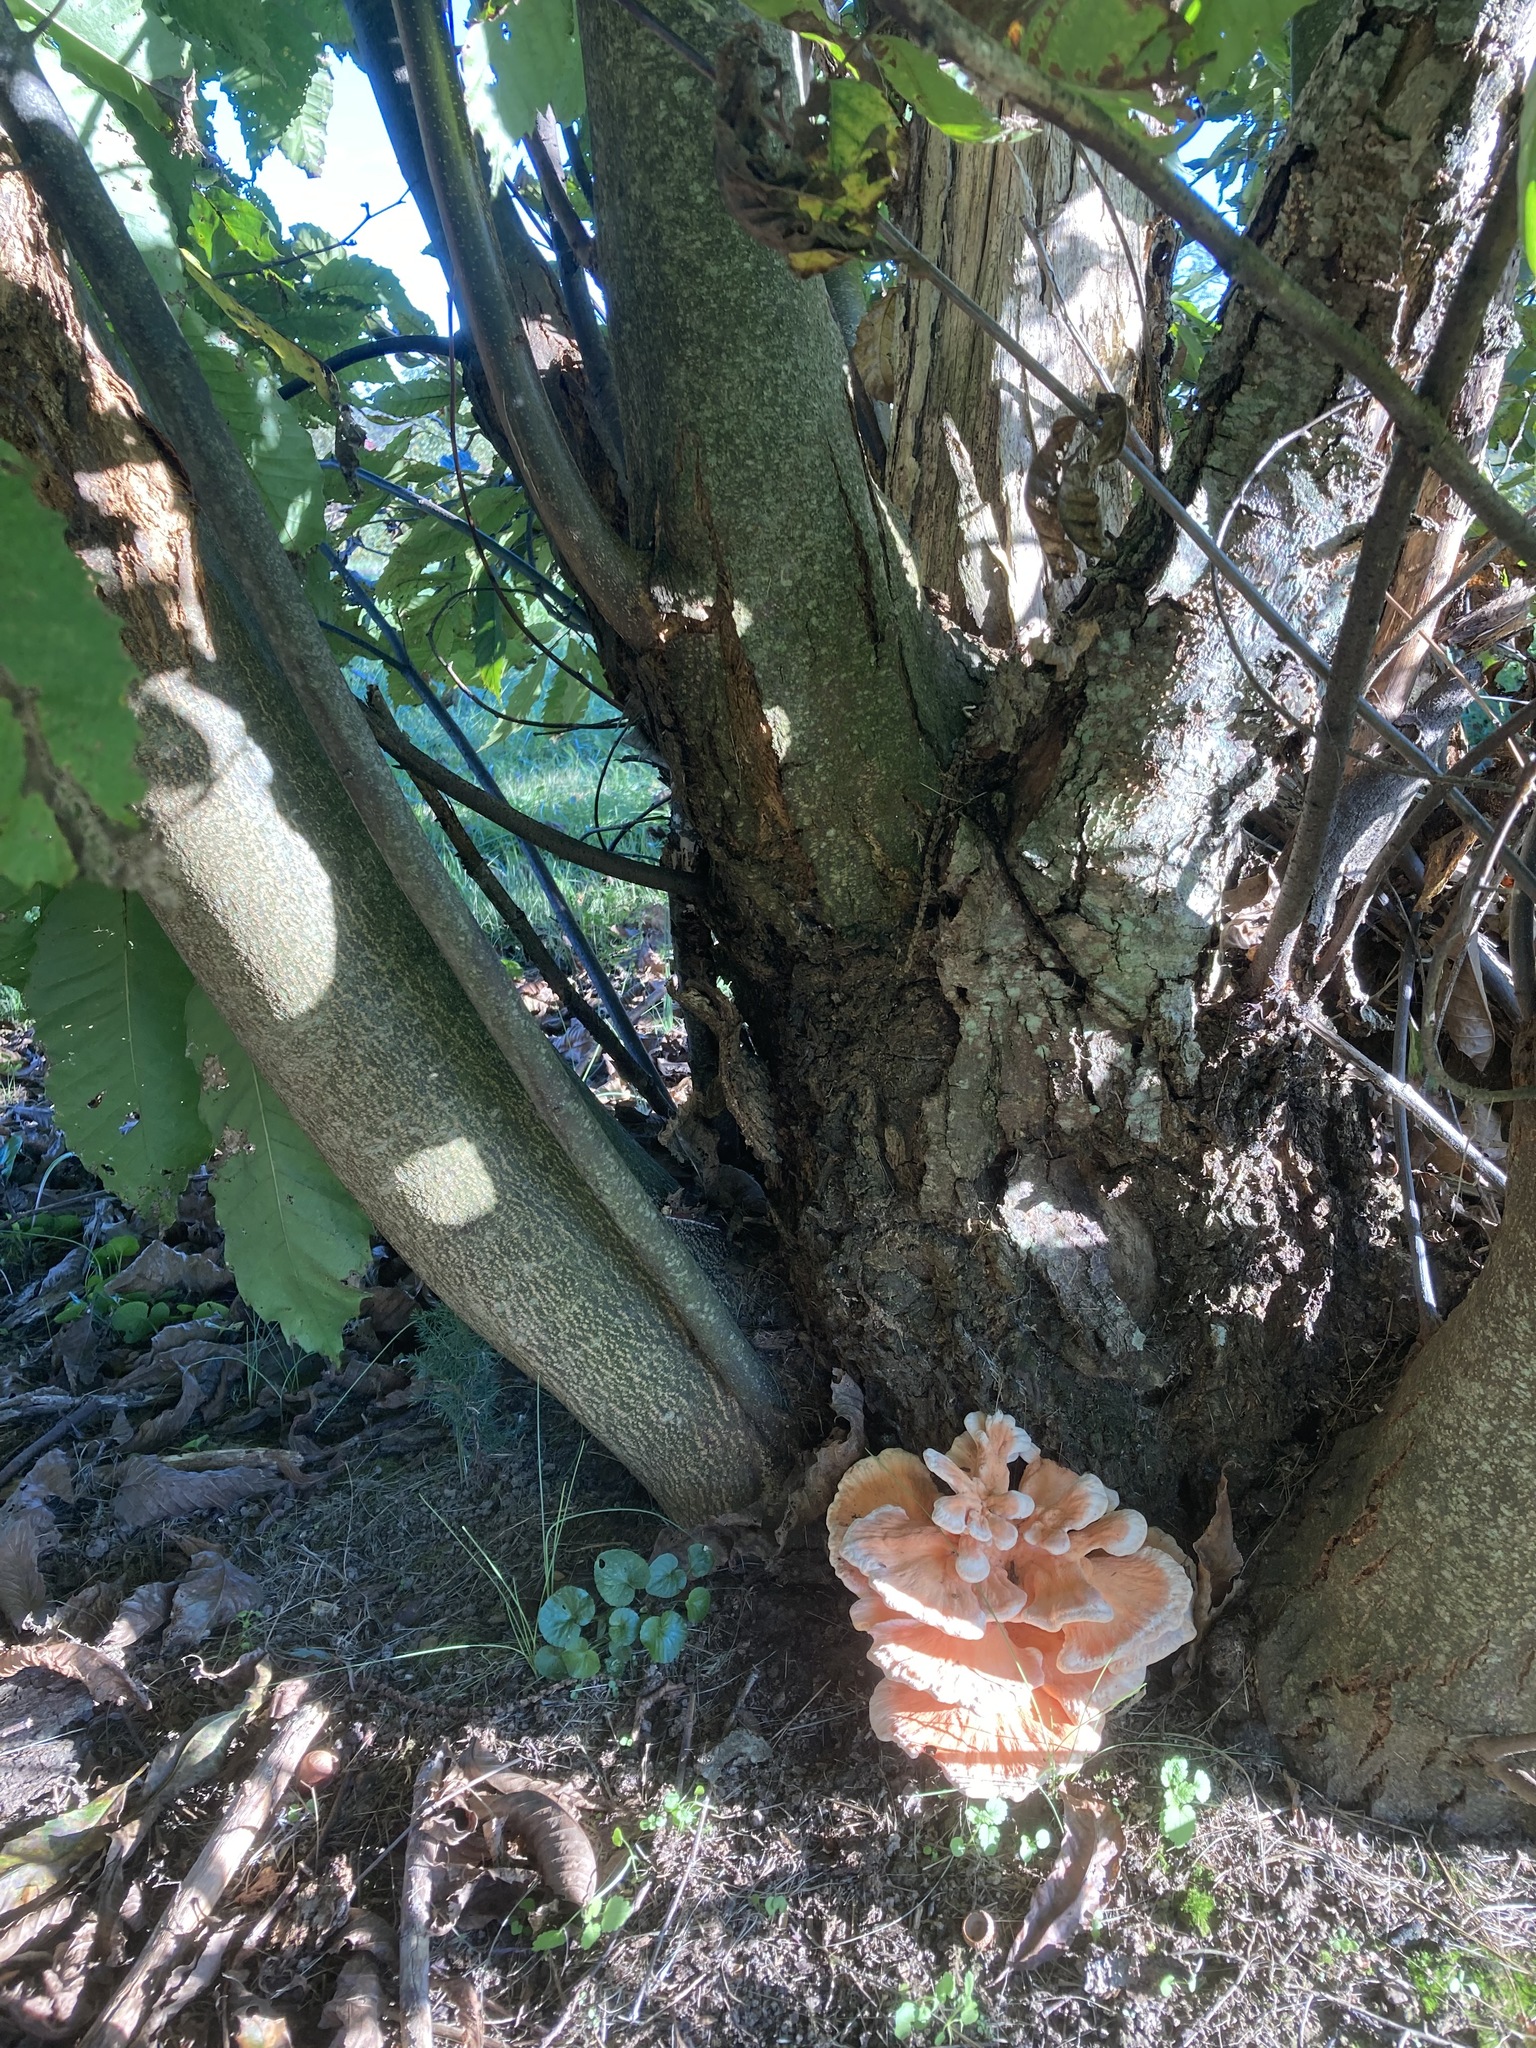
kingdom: Fungi
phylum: Basidiomycota
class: Agaricomycetes
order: Polyporales
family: Laetiporaceae
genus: Laetiporus
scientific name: Laetiporus sulphureus
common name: Chicken of the woods
